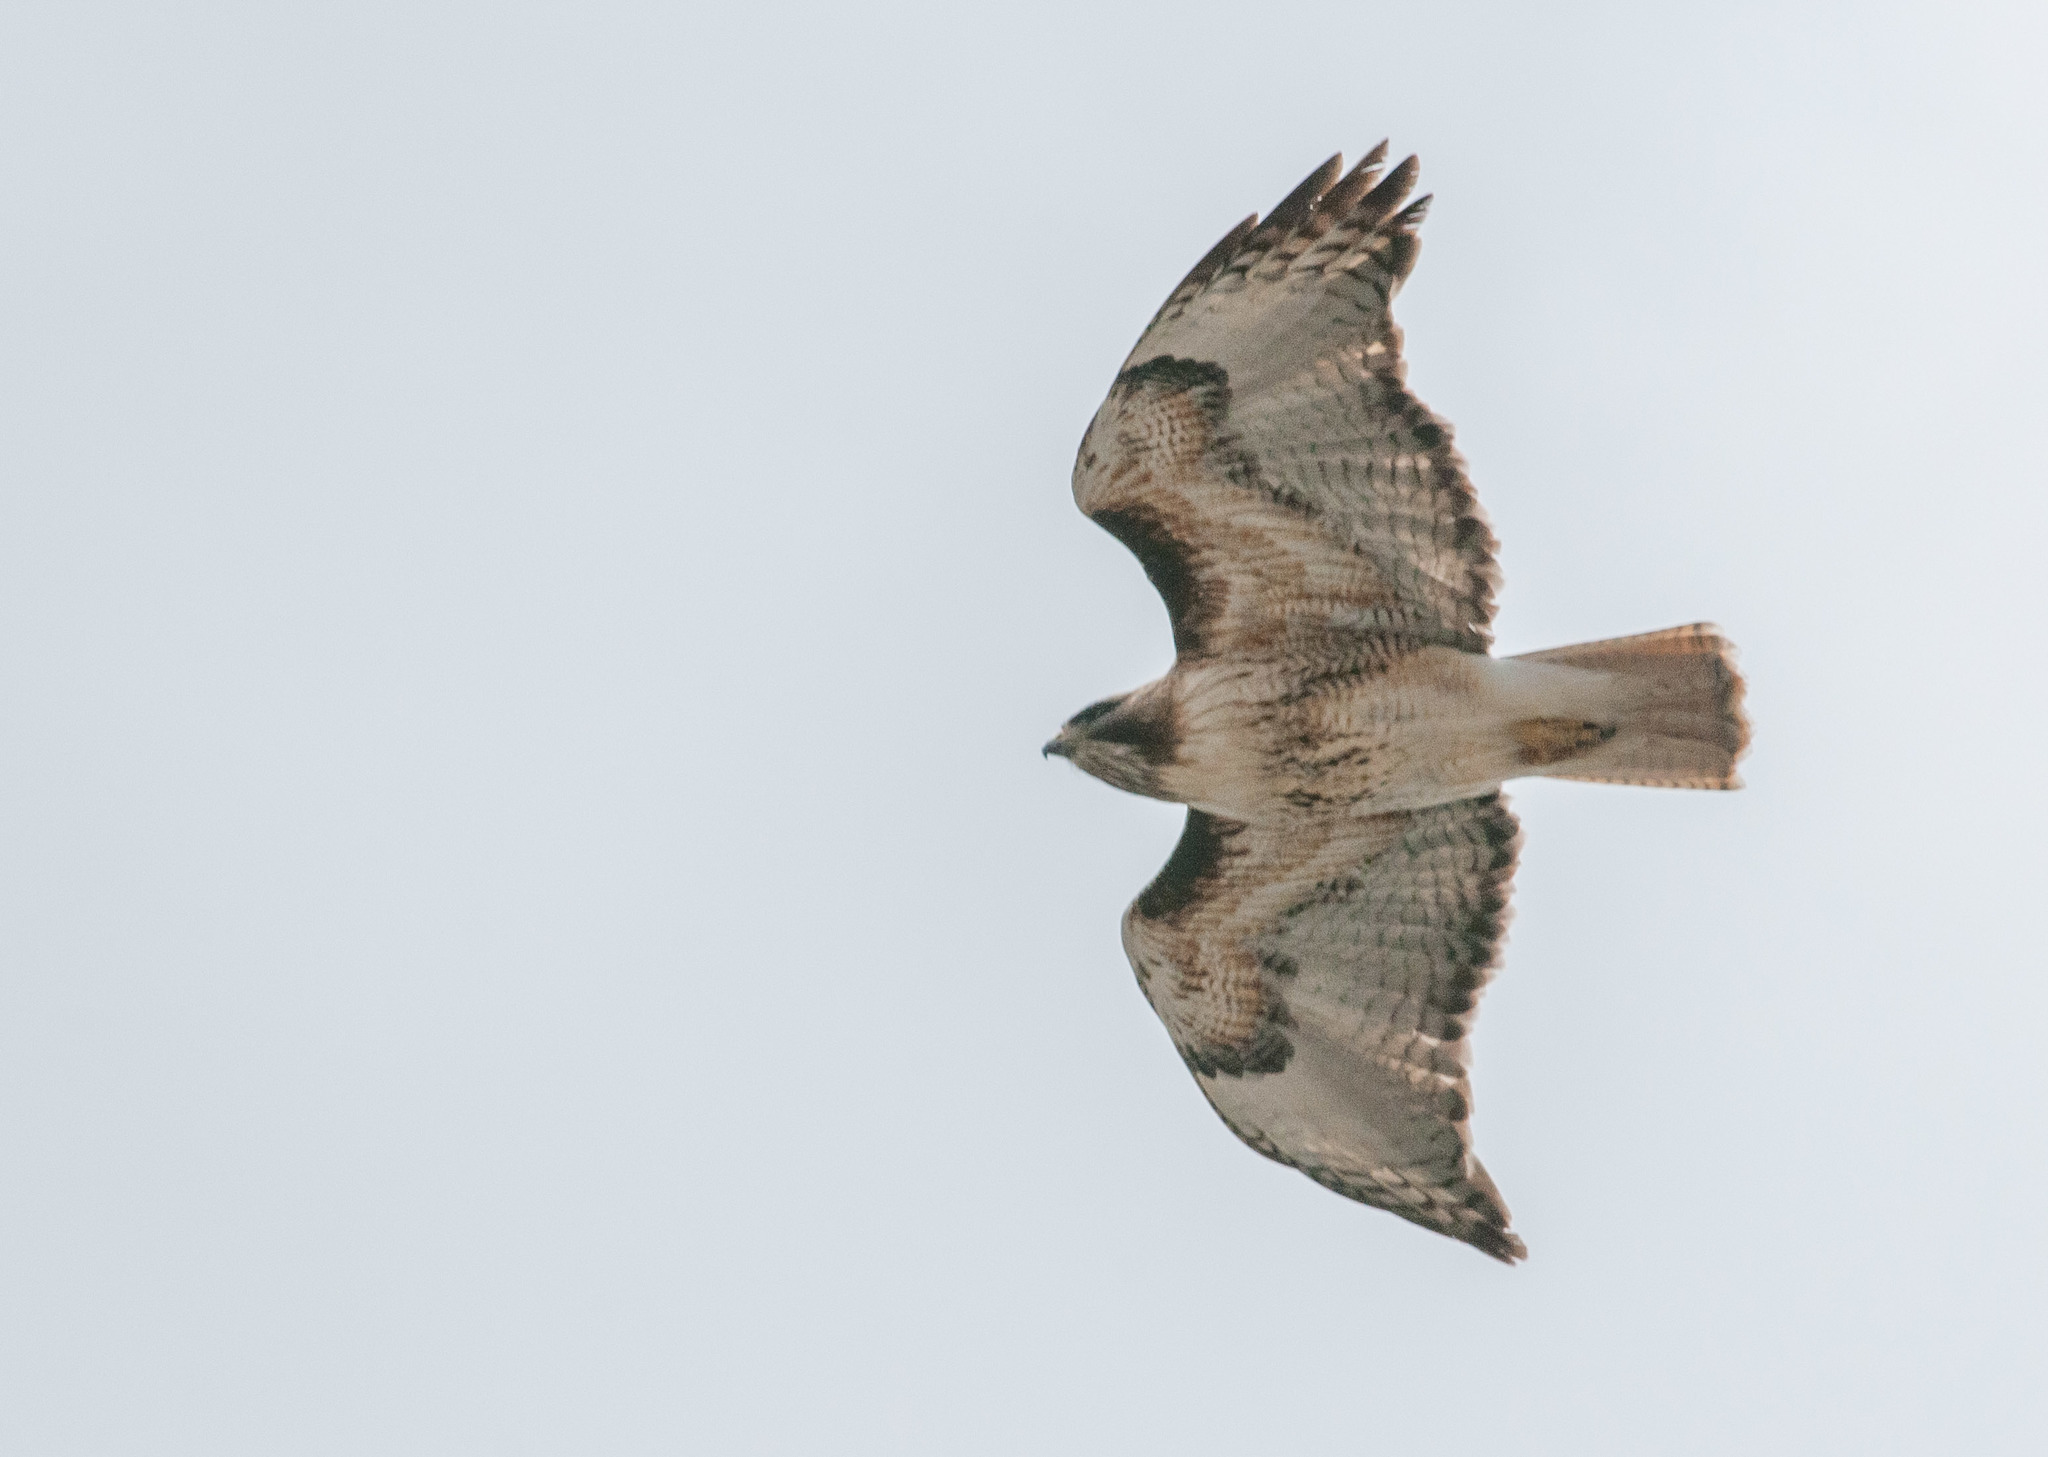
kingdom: Animalia
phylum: Chordata
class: Aves
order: Accipitriformes
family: Accipitridae
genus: Buteo
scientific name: Buteo jamaicensis
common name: Red-tailed hawk
